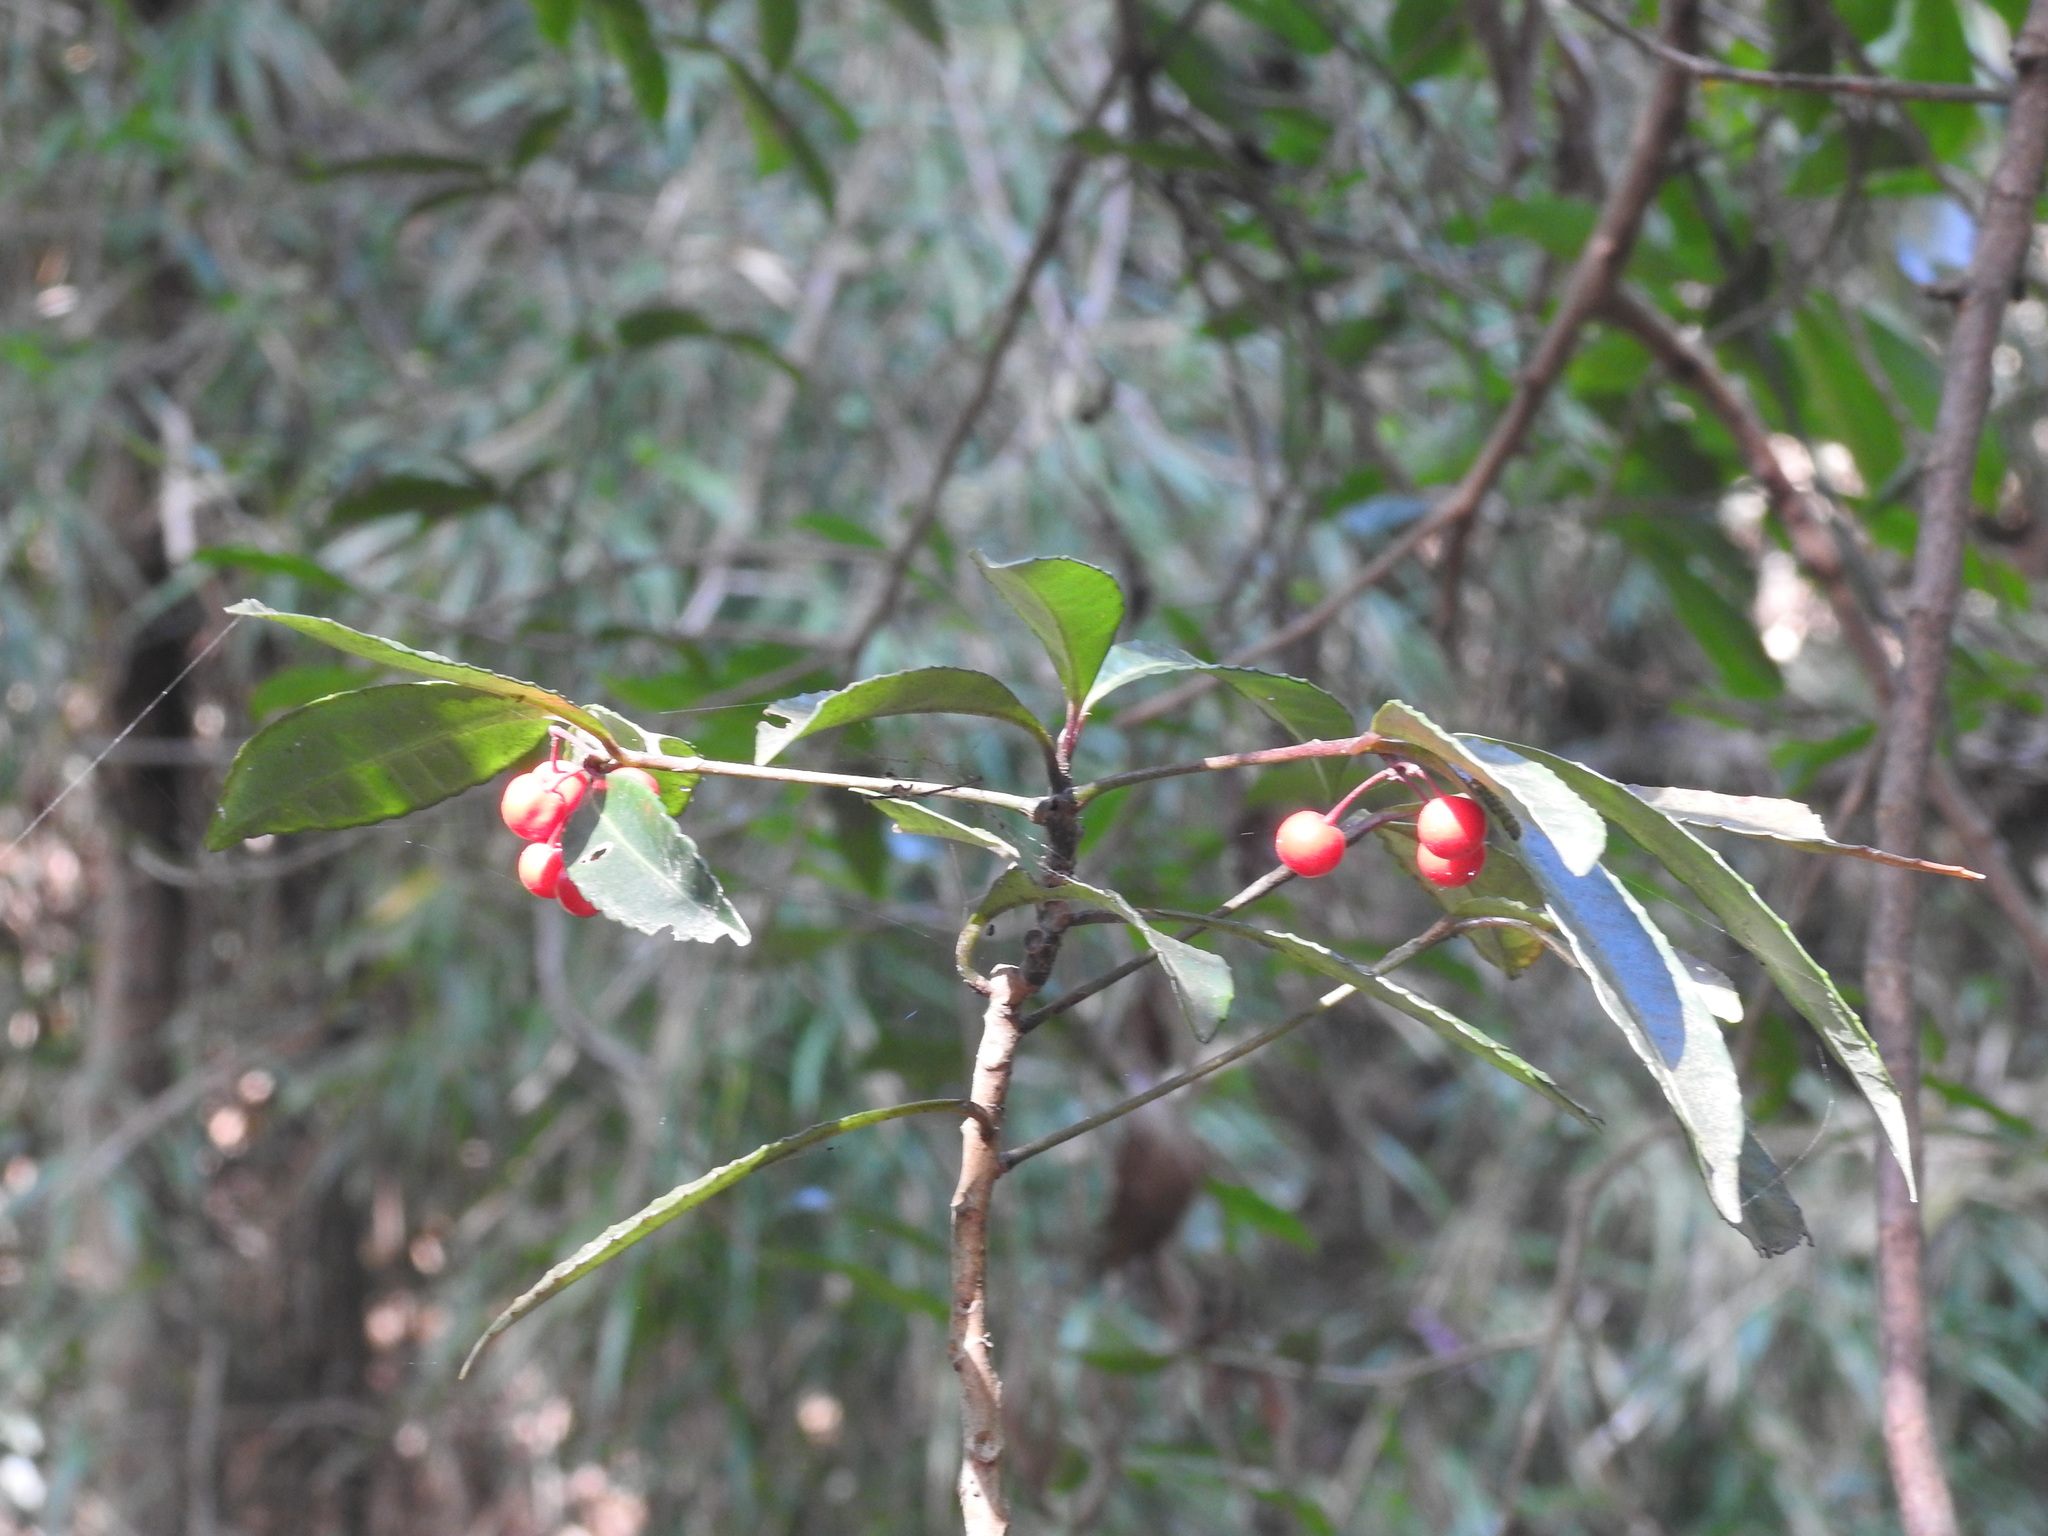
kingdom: Plantae
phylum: Tracheophyta
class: Magnoliopsida
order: Ericales
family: Primulaceae
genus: Ardisia
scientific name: Ardisia crenata
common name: Hen's eyes
